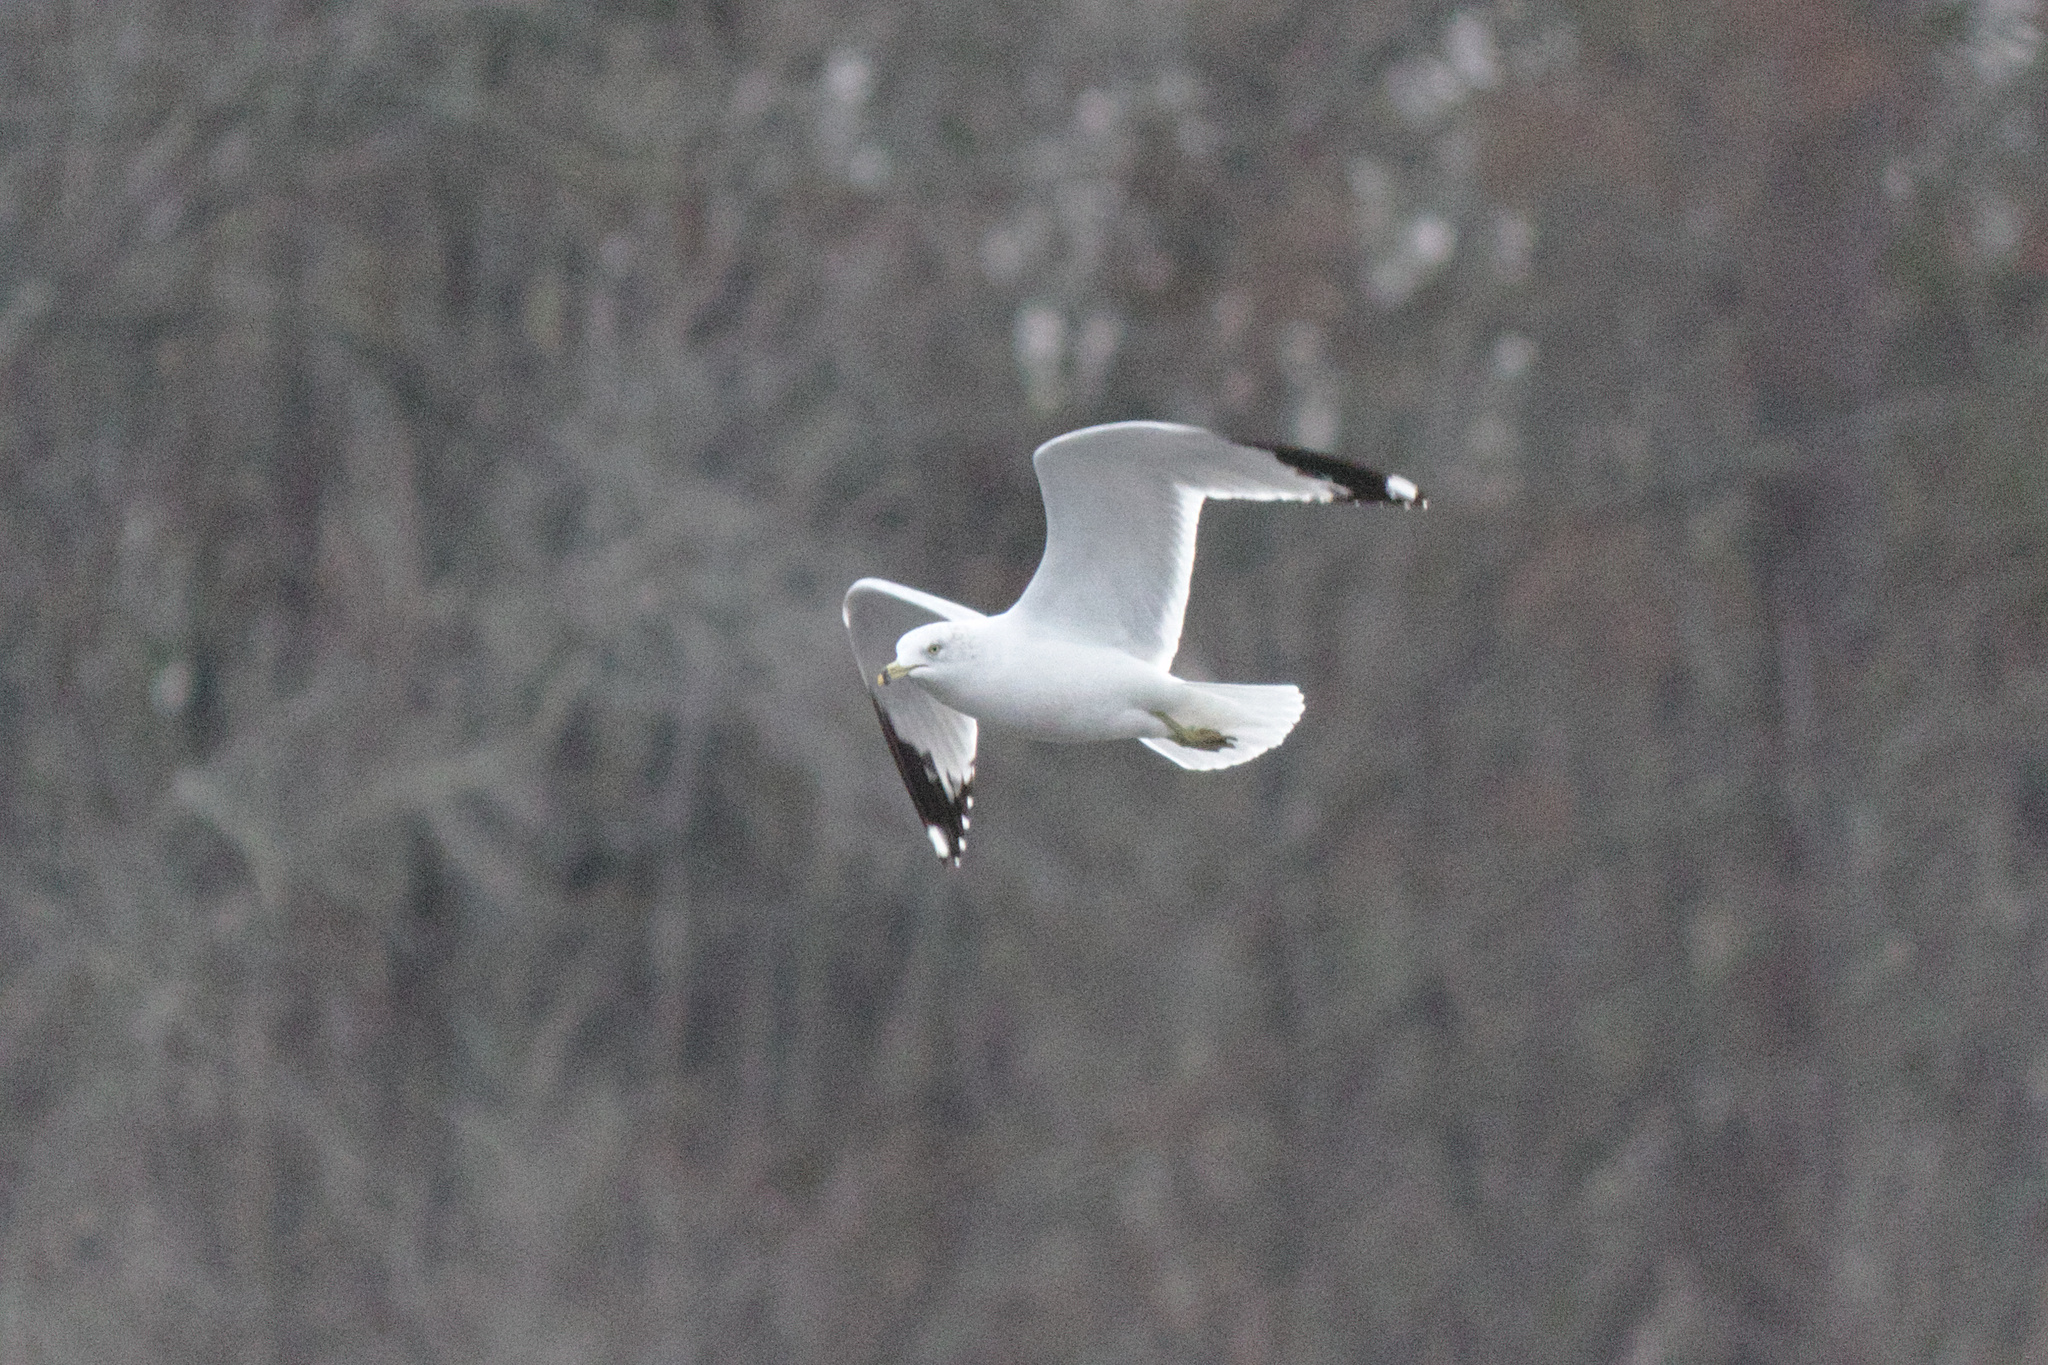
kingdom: Animalia
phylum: Chordata
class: Aves
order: Charadriiformes
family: Laridae
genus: Larus
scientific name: Larus delawarensis
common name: Ring-billed gull
